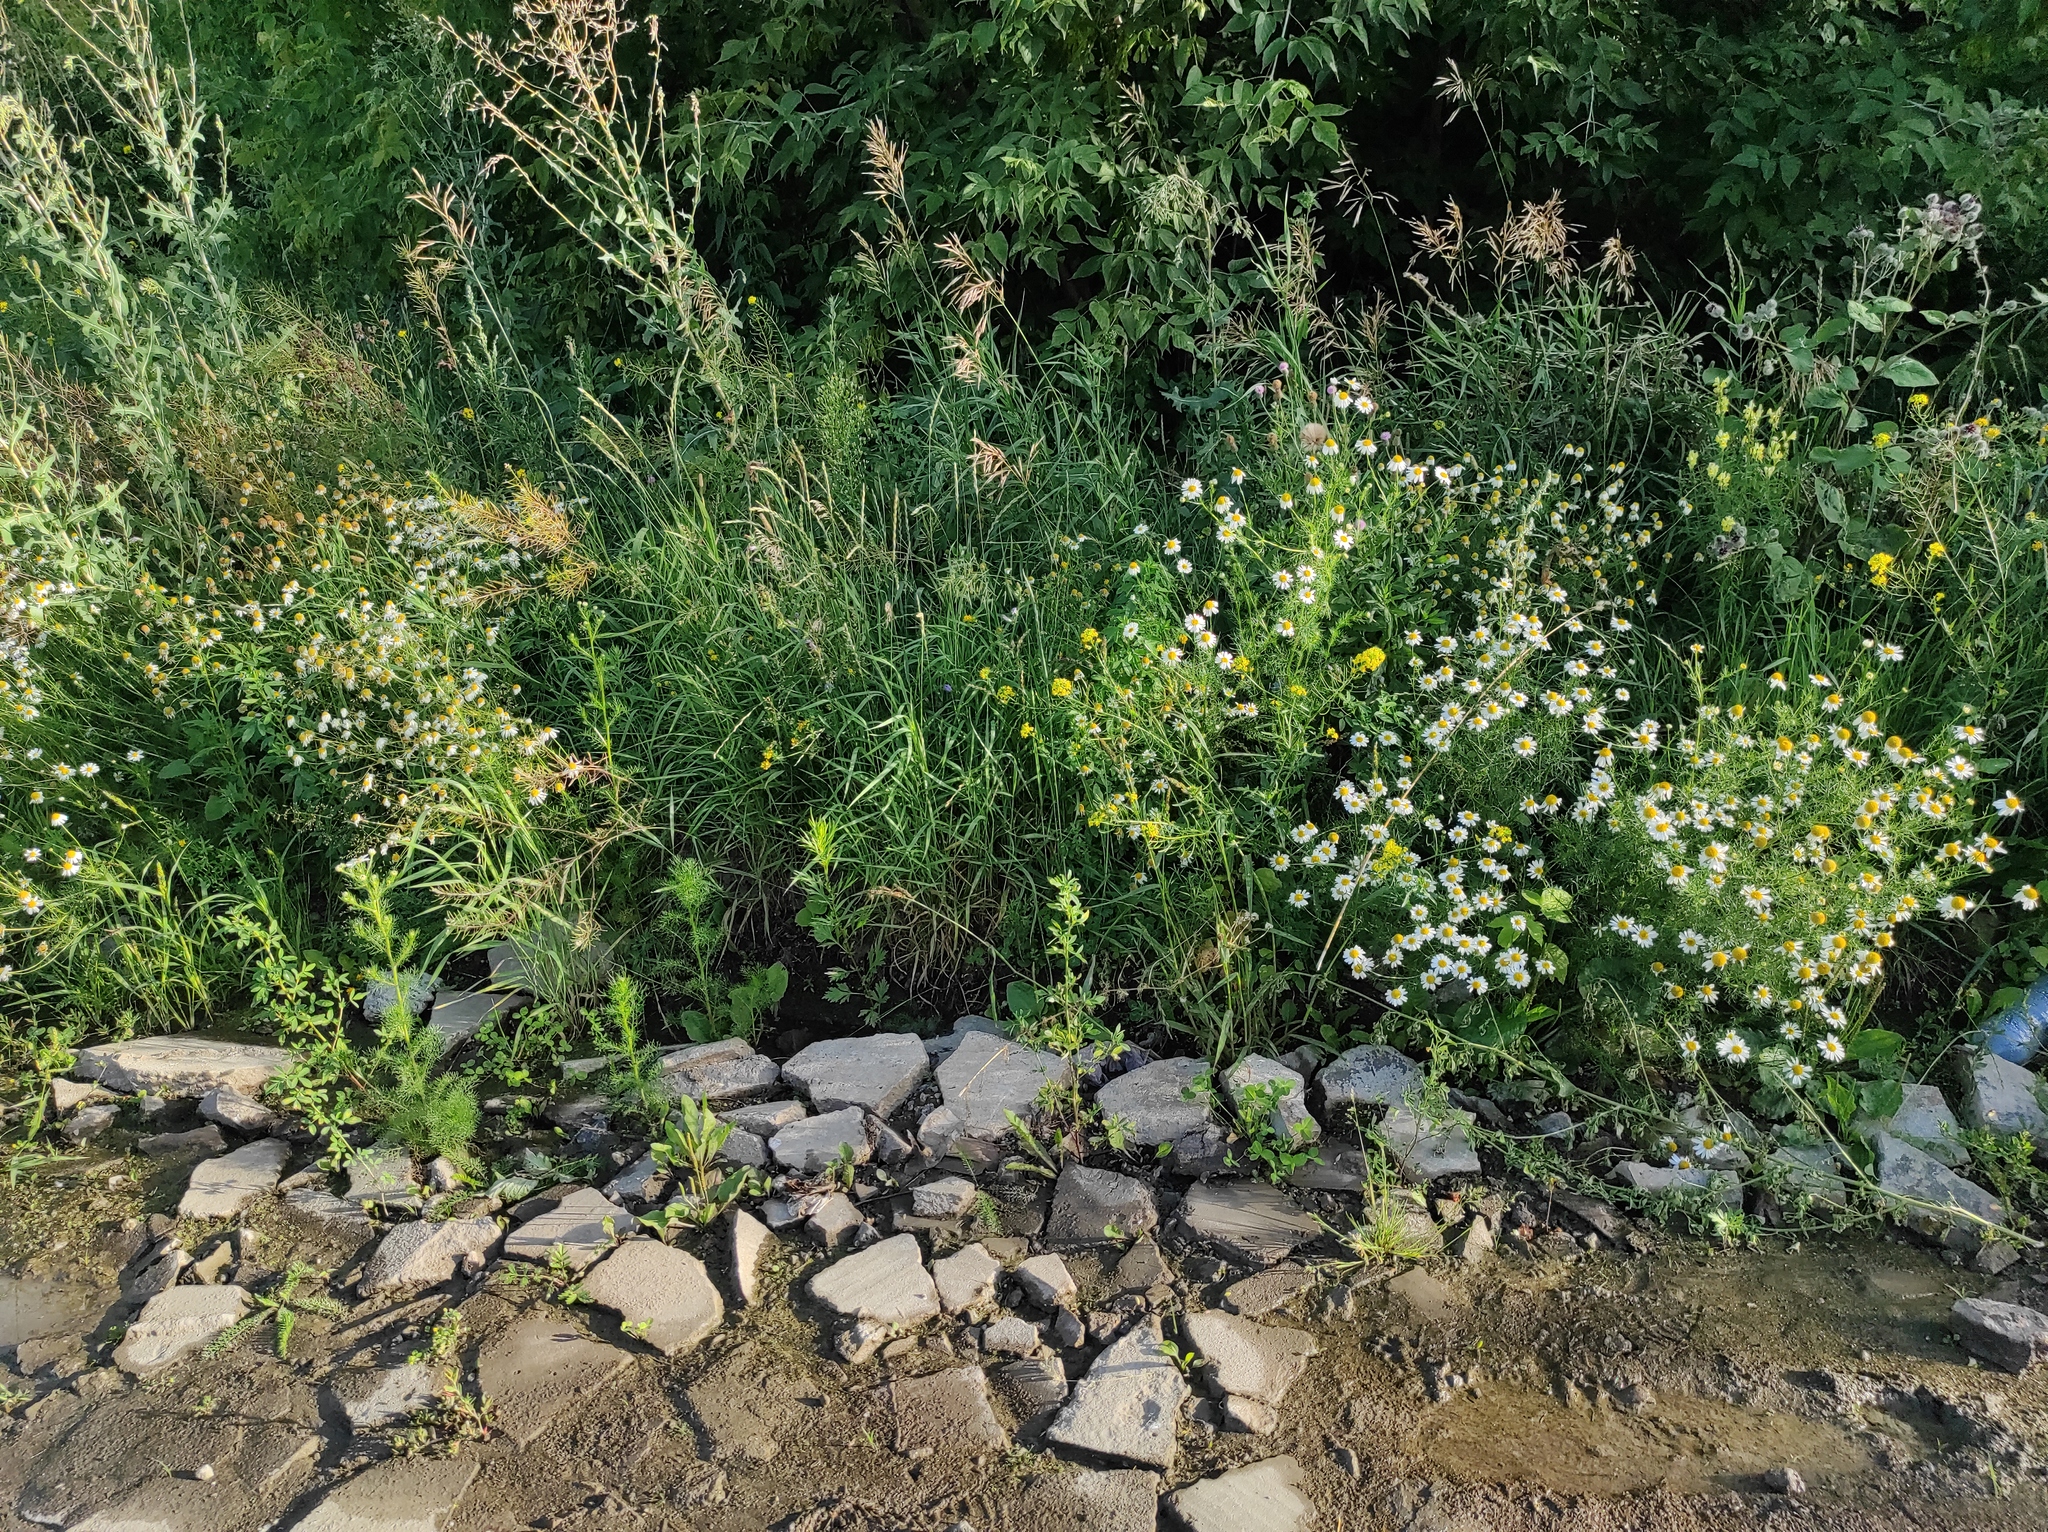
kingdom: Plantae
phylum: Tracheophyta
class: Magnoliopsida
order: Asterales
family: Asteraceae
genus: Tripleurospermum
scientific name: Tripleurospermum inodorum
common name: Scentless mayweed
